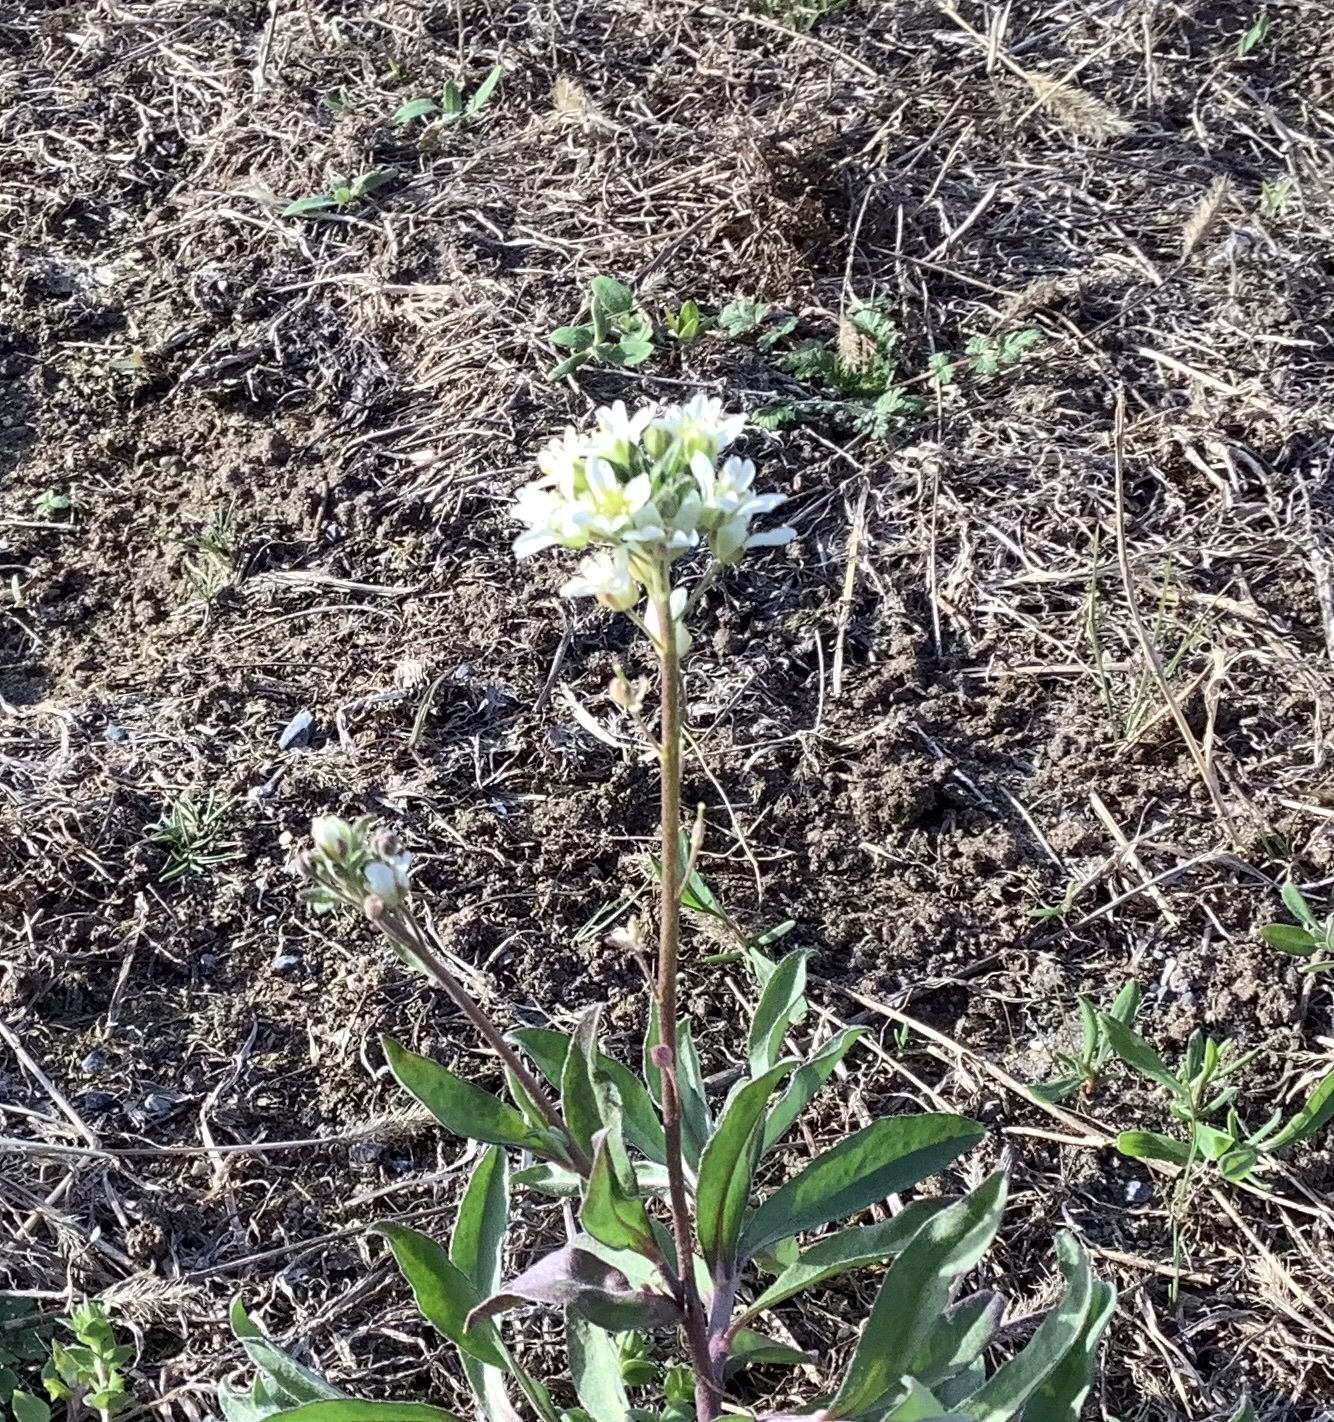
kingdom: Plantae
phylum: Tracheophyta
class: Magnoliopsida
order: Brassicales
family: Brassicaceae
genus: Berteroa
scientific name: Berteroa incana
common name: Hoary alison
